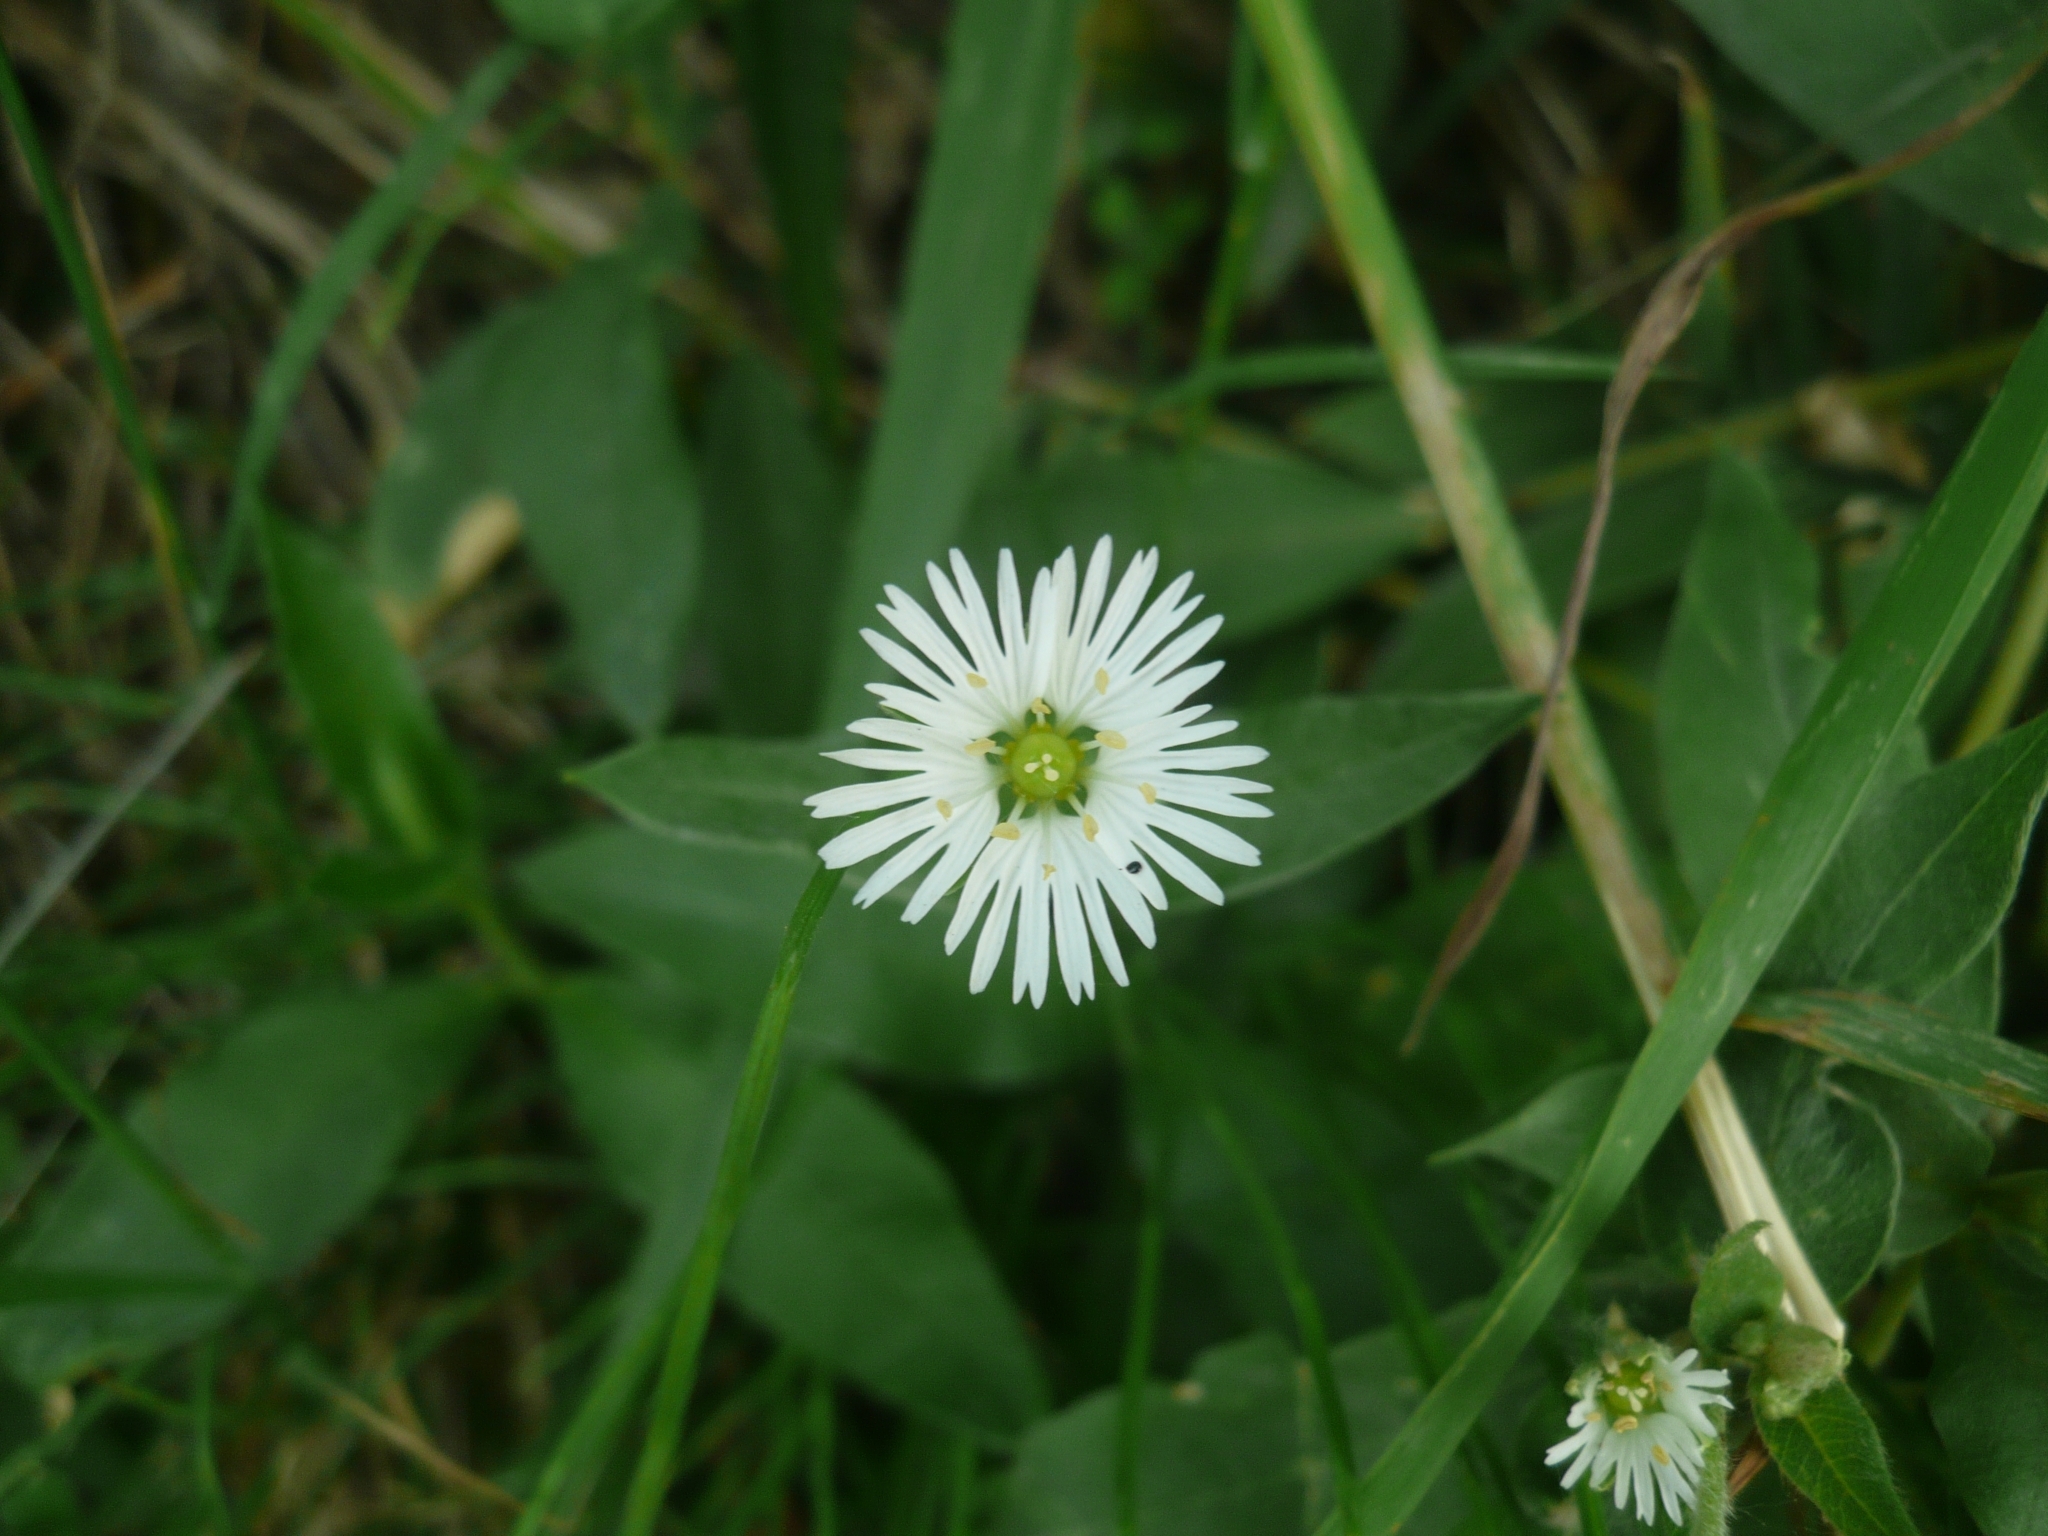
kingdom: Plantae
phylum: Tracheophyta
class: Magnoliopsida
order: Caryophyllales
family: Caryophyllaceae
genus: Stellaria
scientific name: Stellaria radians
